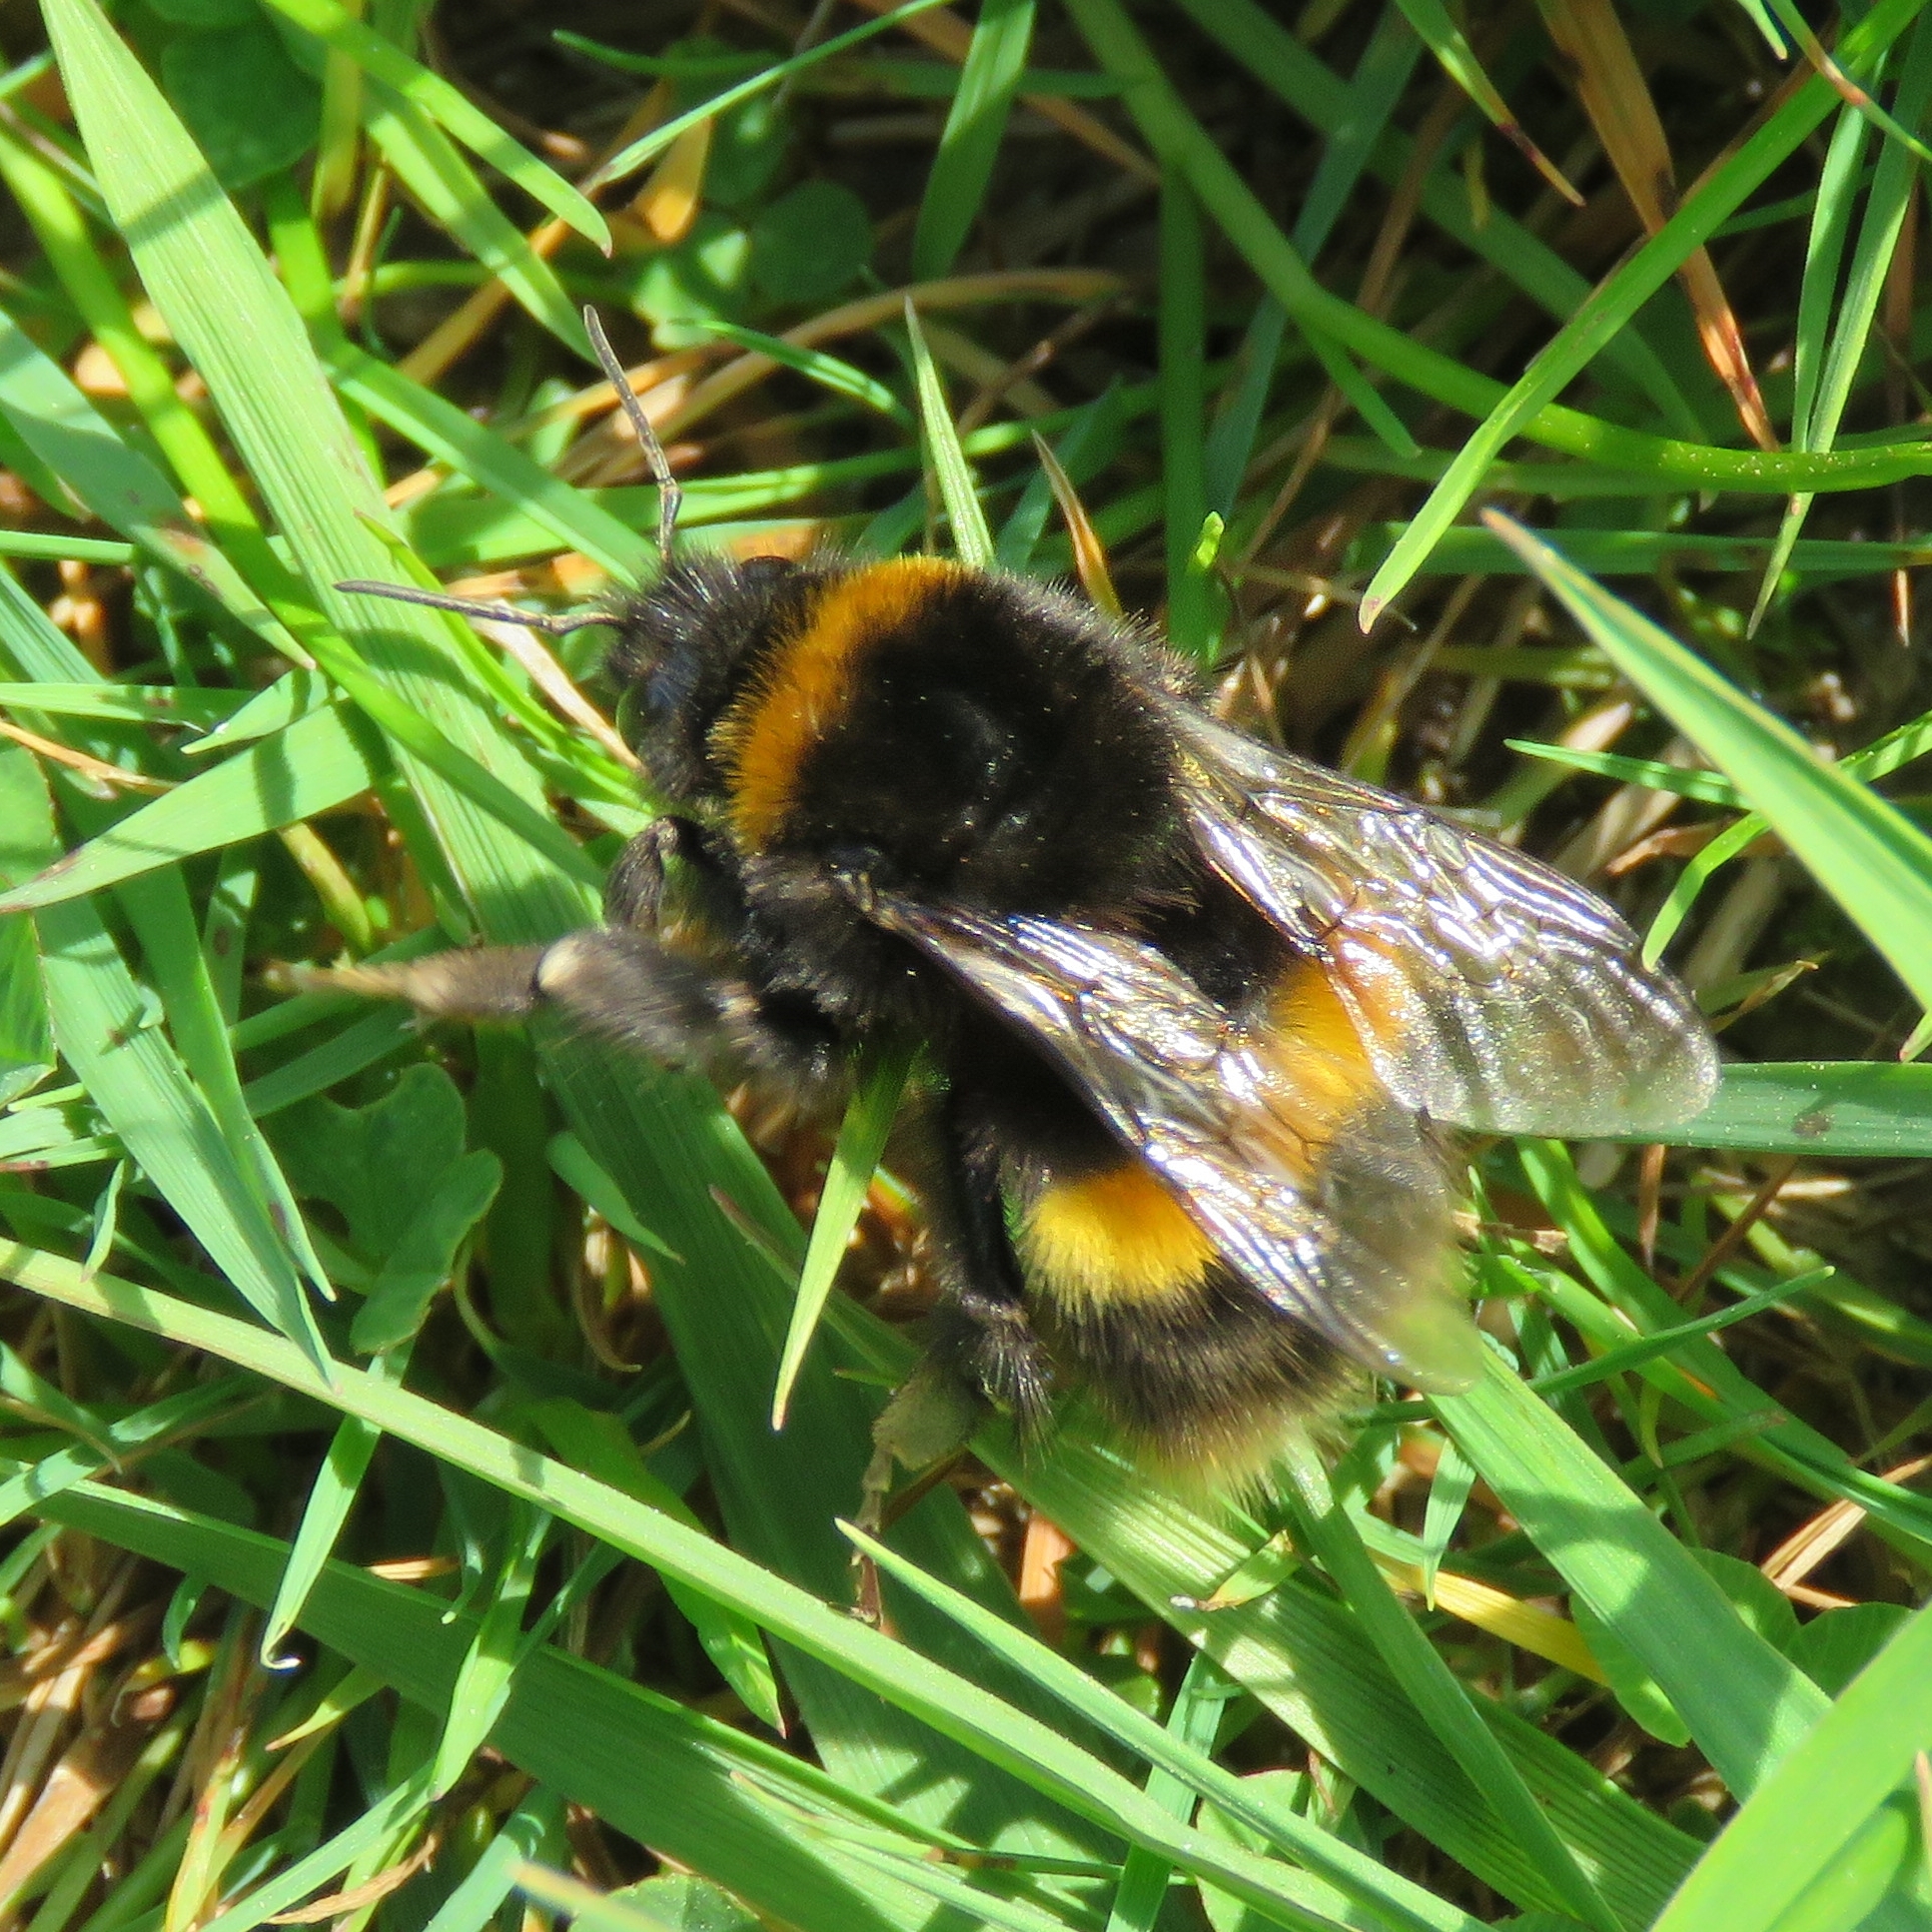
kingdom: Animalia
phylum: Arthropoda
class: Insecta
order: Hymenoptera
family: Apidae
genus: Bombus
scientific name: Bombus terrestris
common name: Buff-tailed bumblebee
